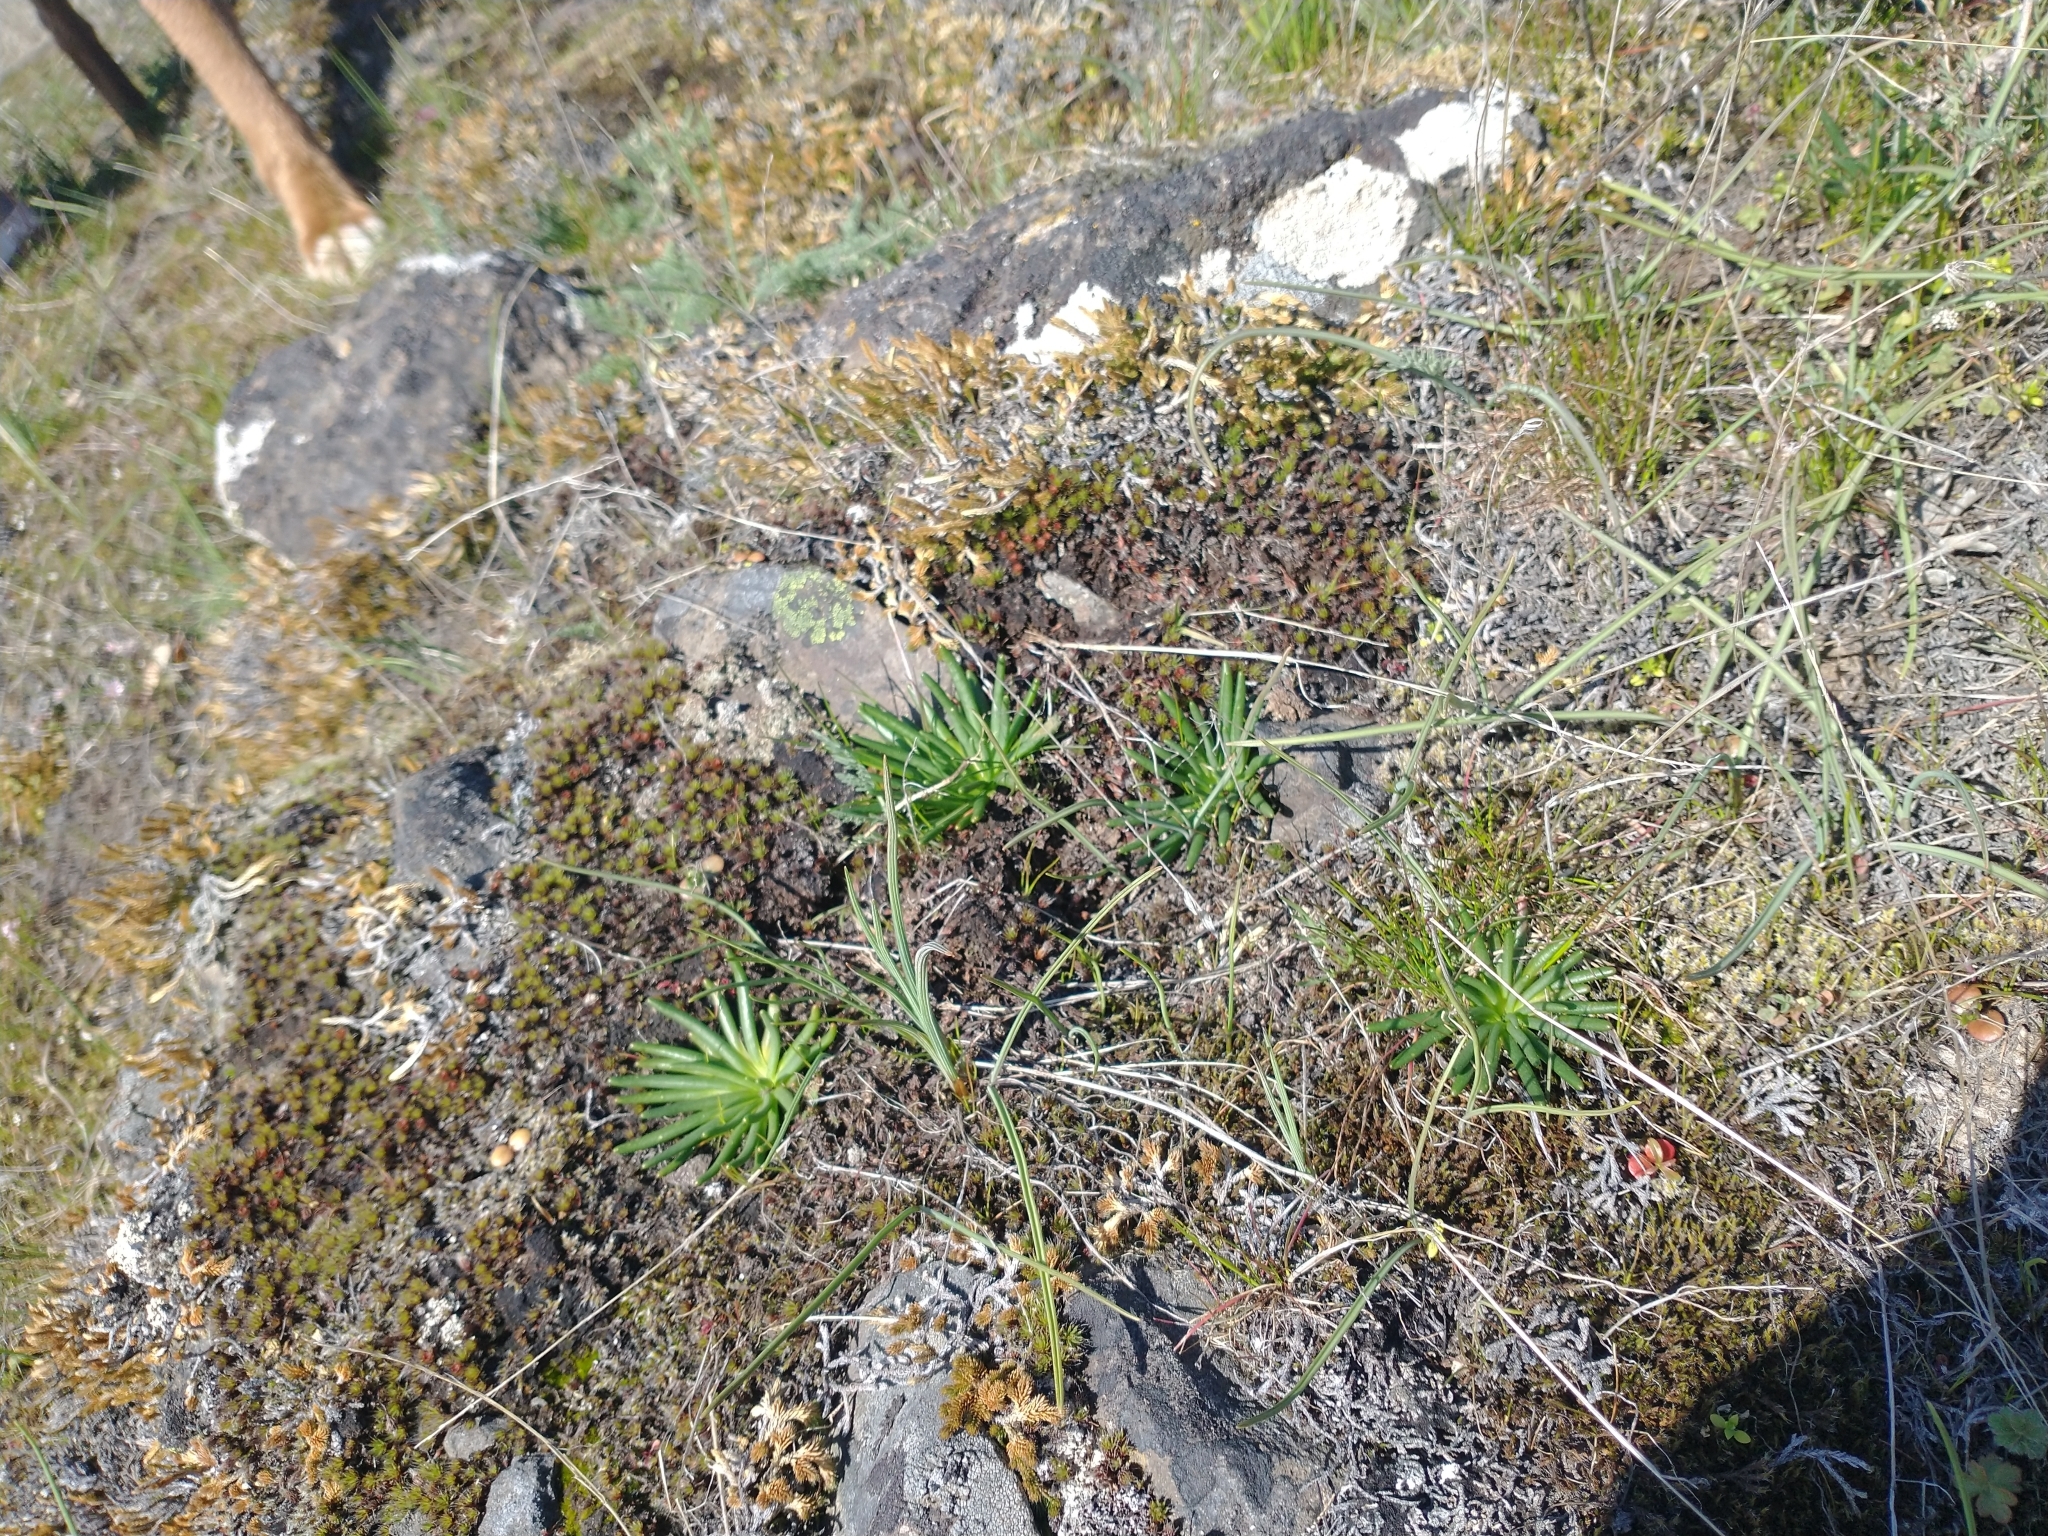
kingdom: Plantae
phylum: Tracheophyta
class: Magnoliopsida
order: Caryophyllales
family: Montiaceae
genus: Lewisia
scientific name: Lewisia rediviva
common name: Bitter-root
